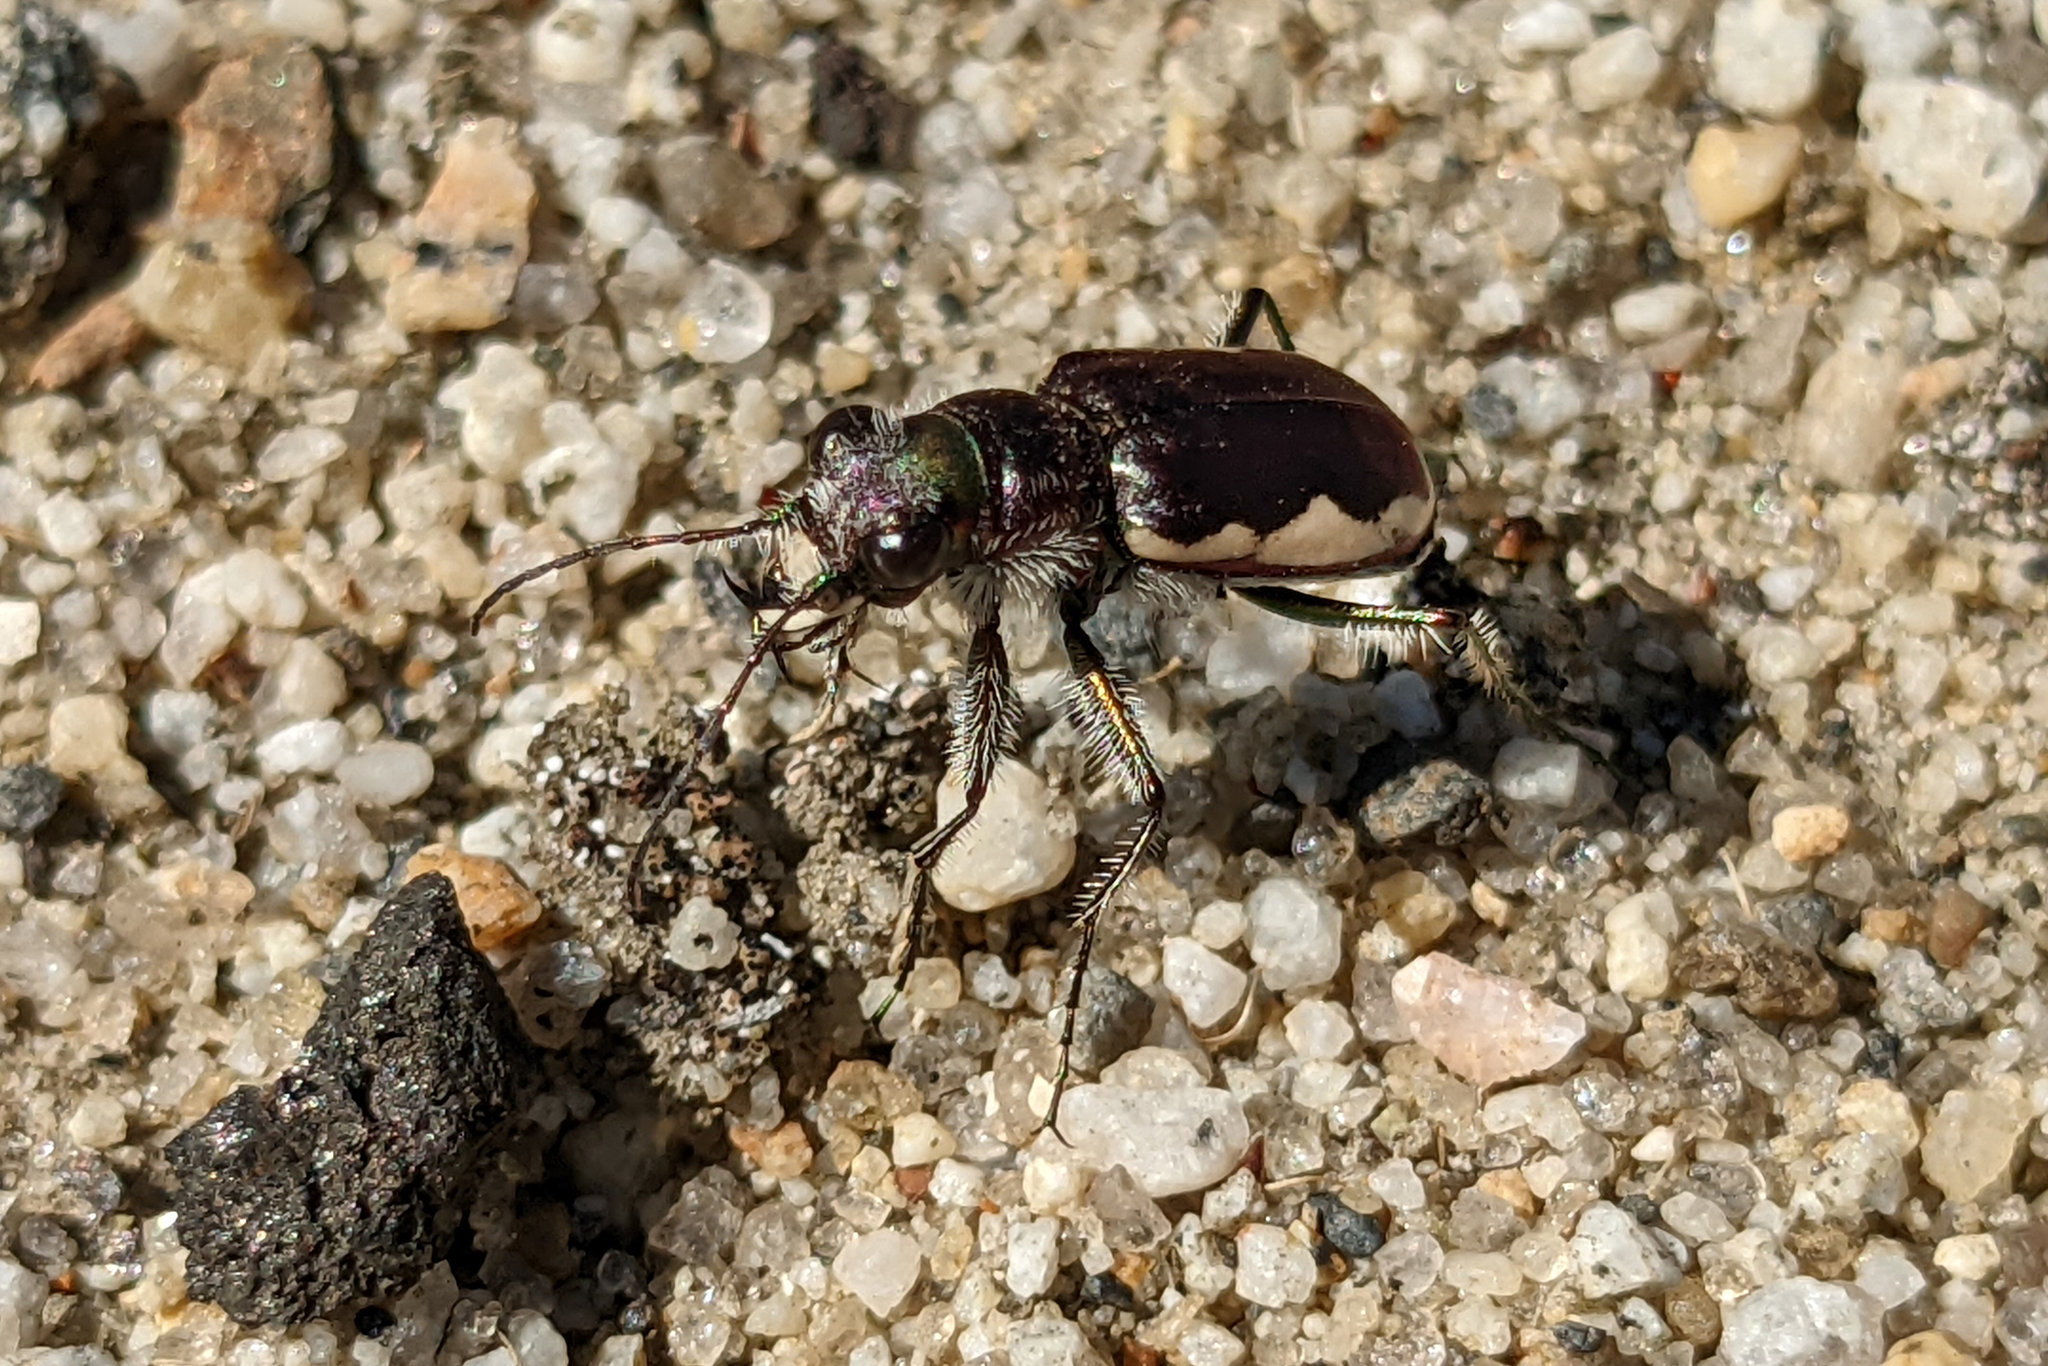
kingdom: Animalia
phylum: Arthropoda
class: Insecta
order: Coleoptera
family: Carabidae
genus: Cicindela
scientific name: Cicindela scutellaris
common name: Festive tiger beetle
